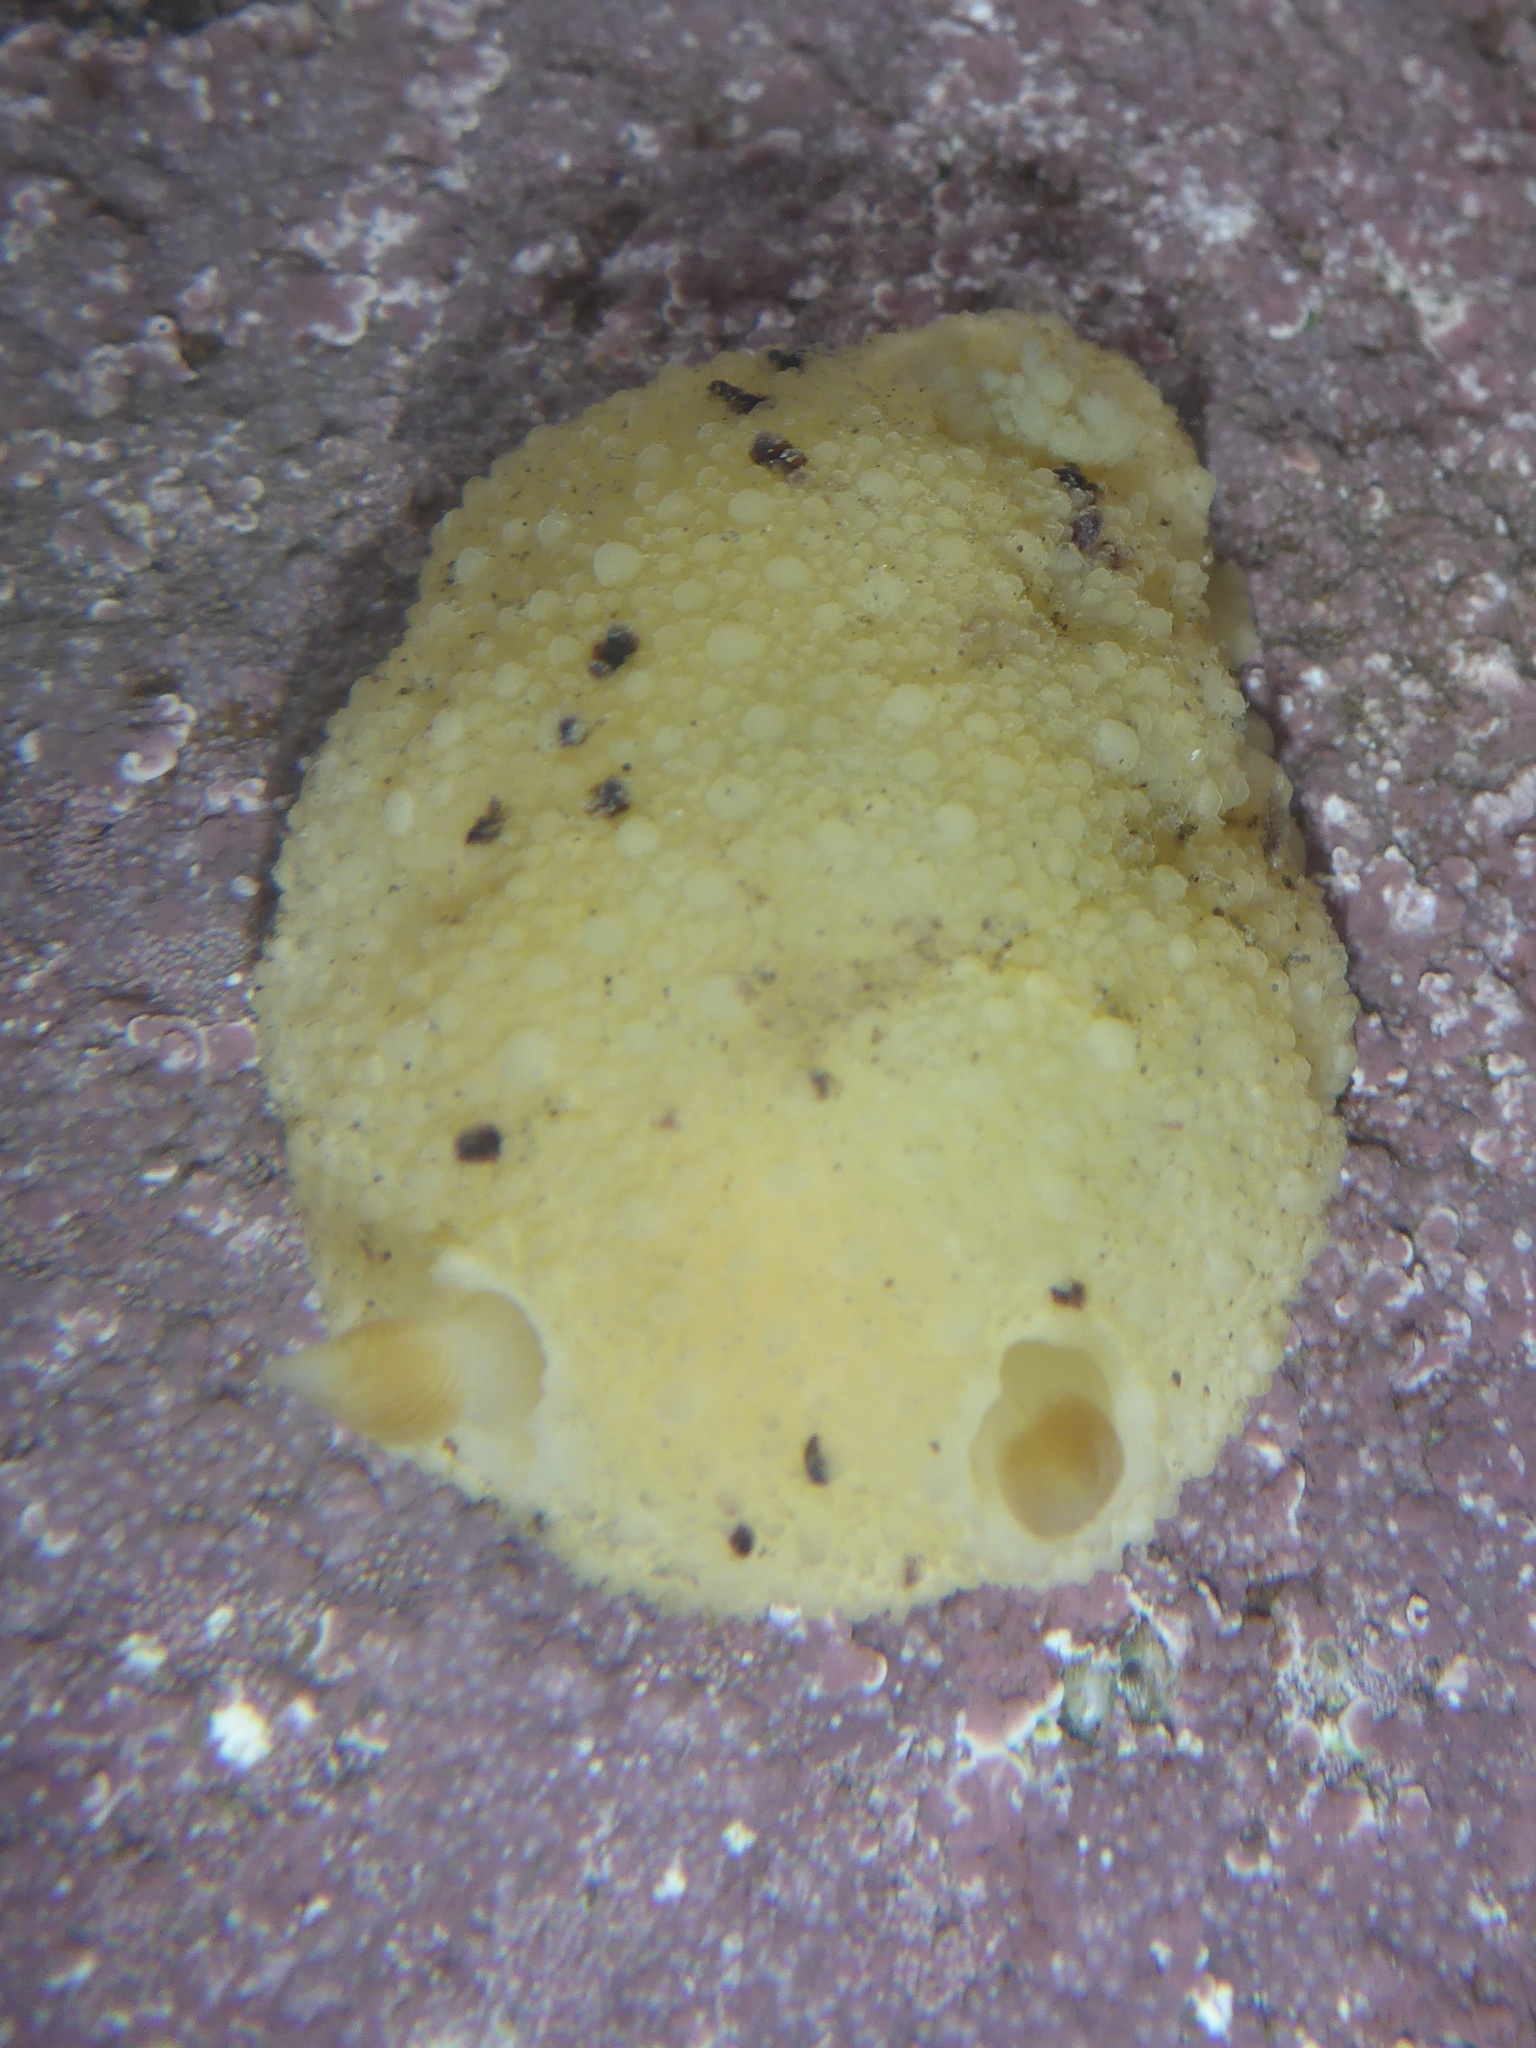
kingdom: Animalia
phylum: Mollusca
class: Gastropoda
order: Nudibranchia
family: Dorididae
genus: Doris
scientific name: Doris montereyensis
